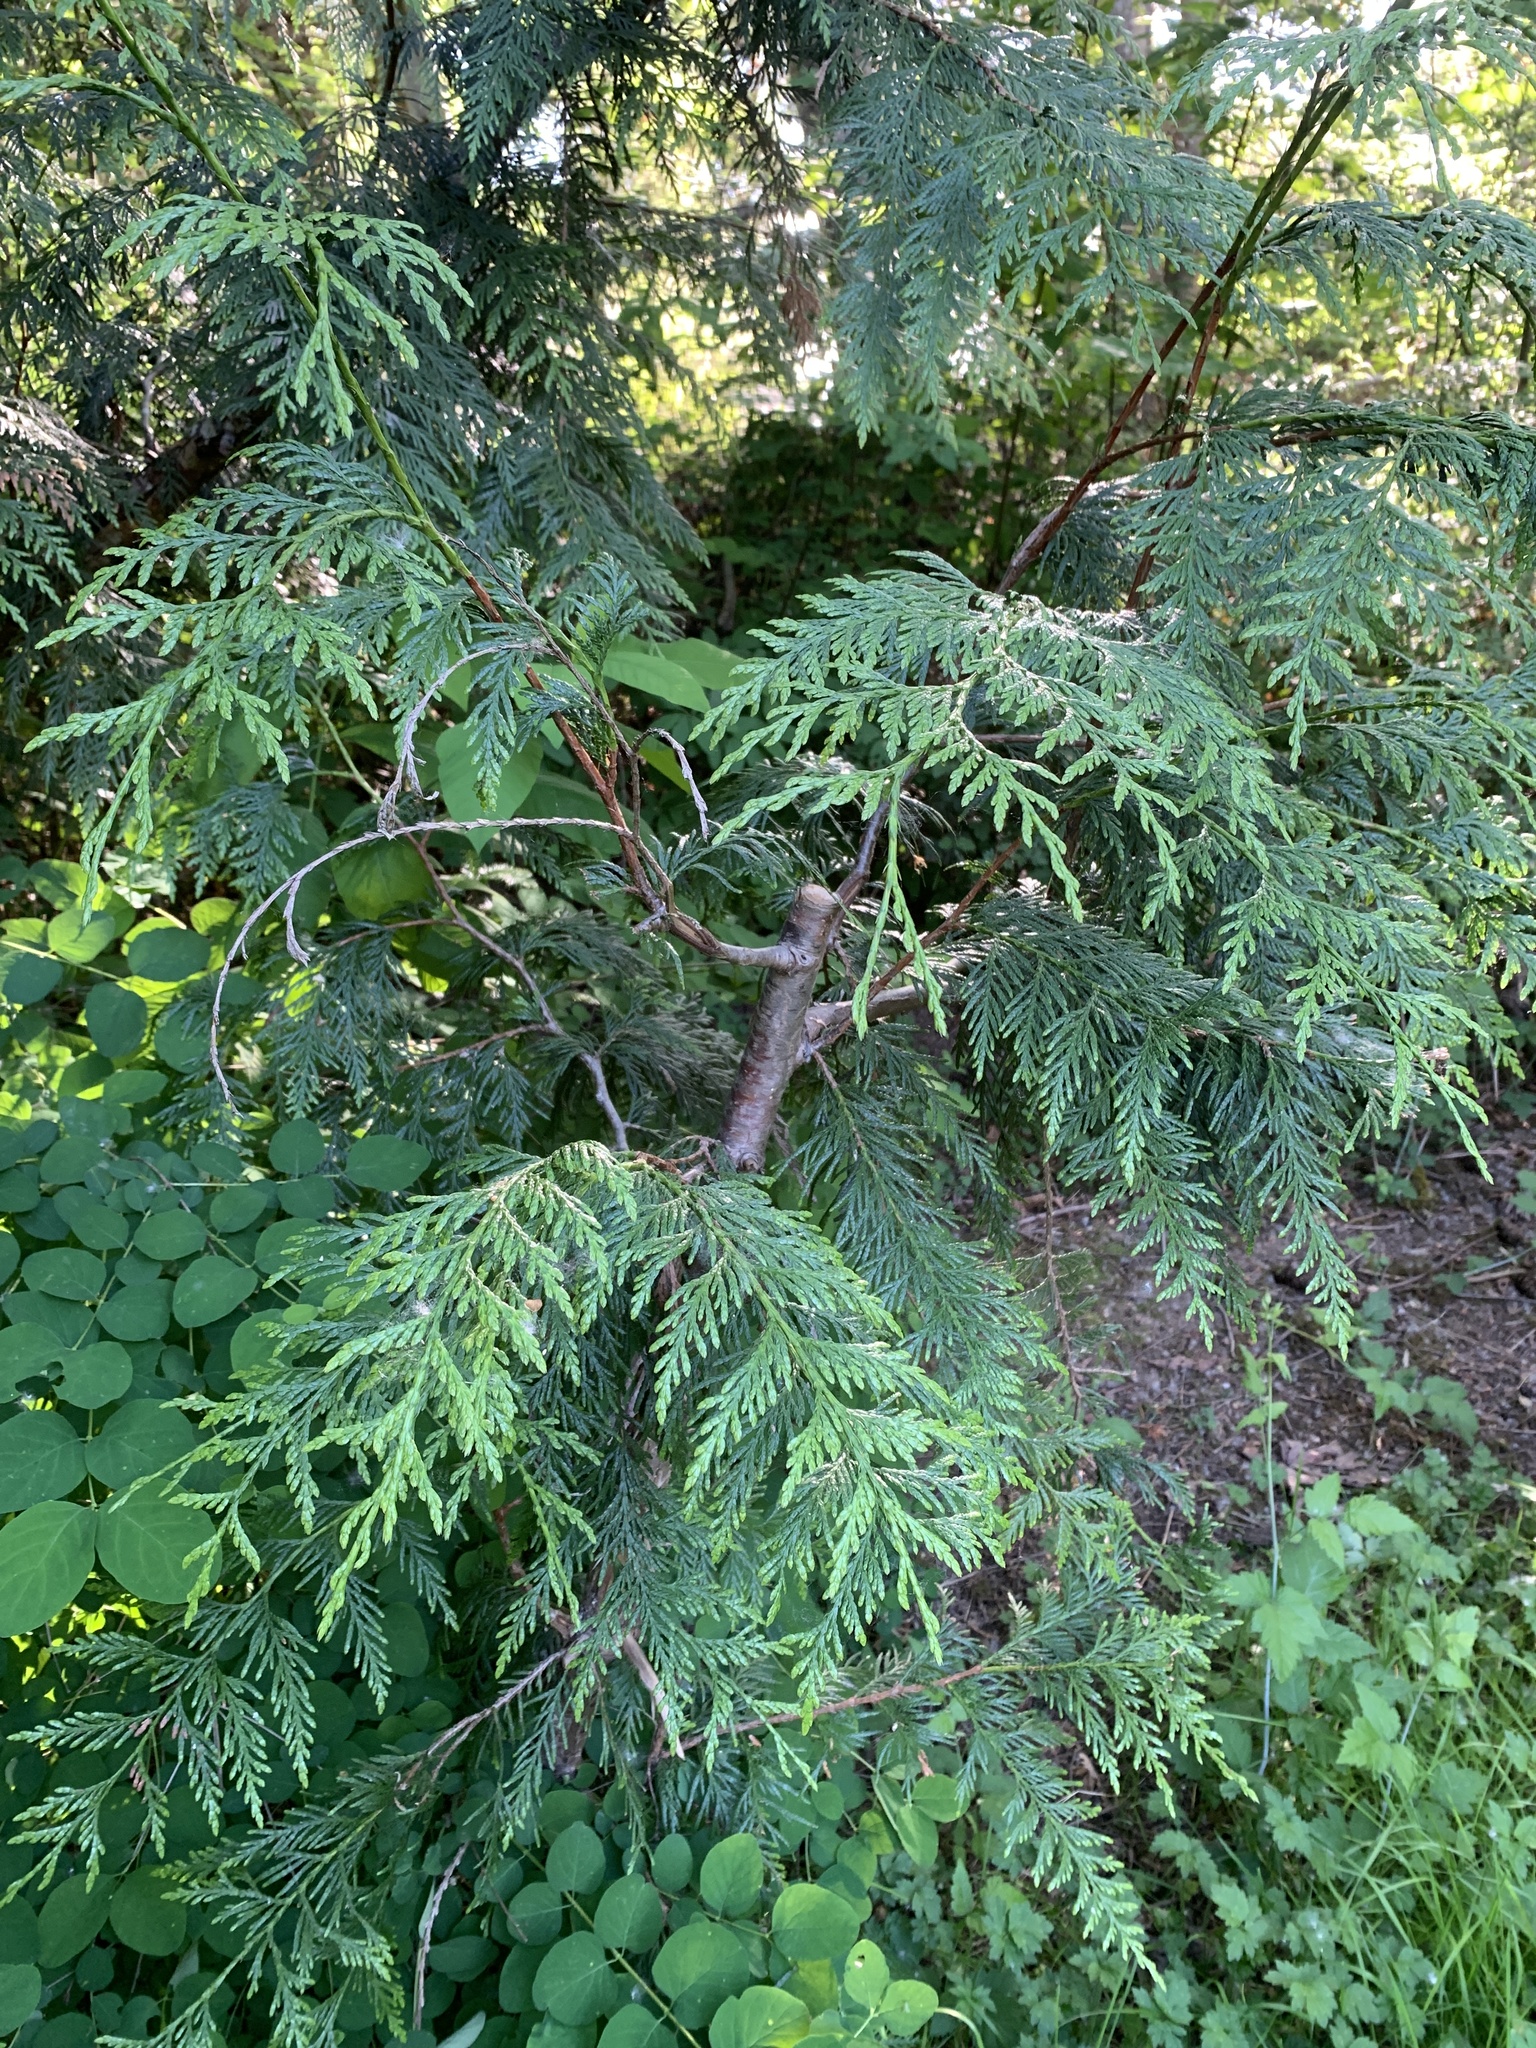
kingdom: Plantae
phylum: Tracheophyta
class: Pinopsida
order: Pinales
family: Cupressaceae
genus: Thuja
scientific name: Thuja plicata
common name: Western red-cedar
